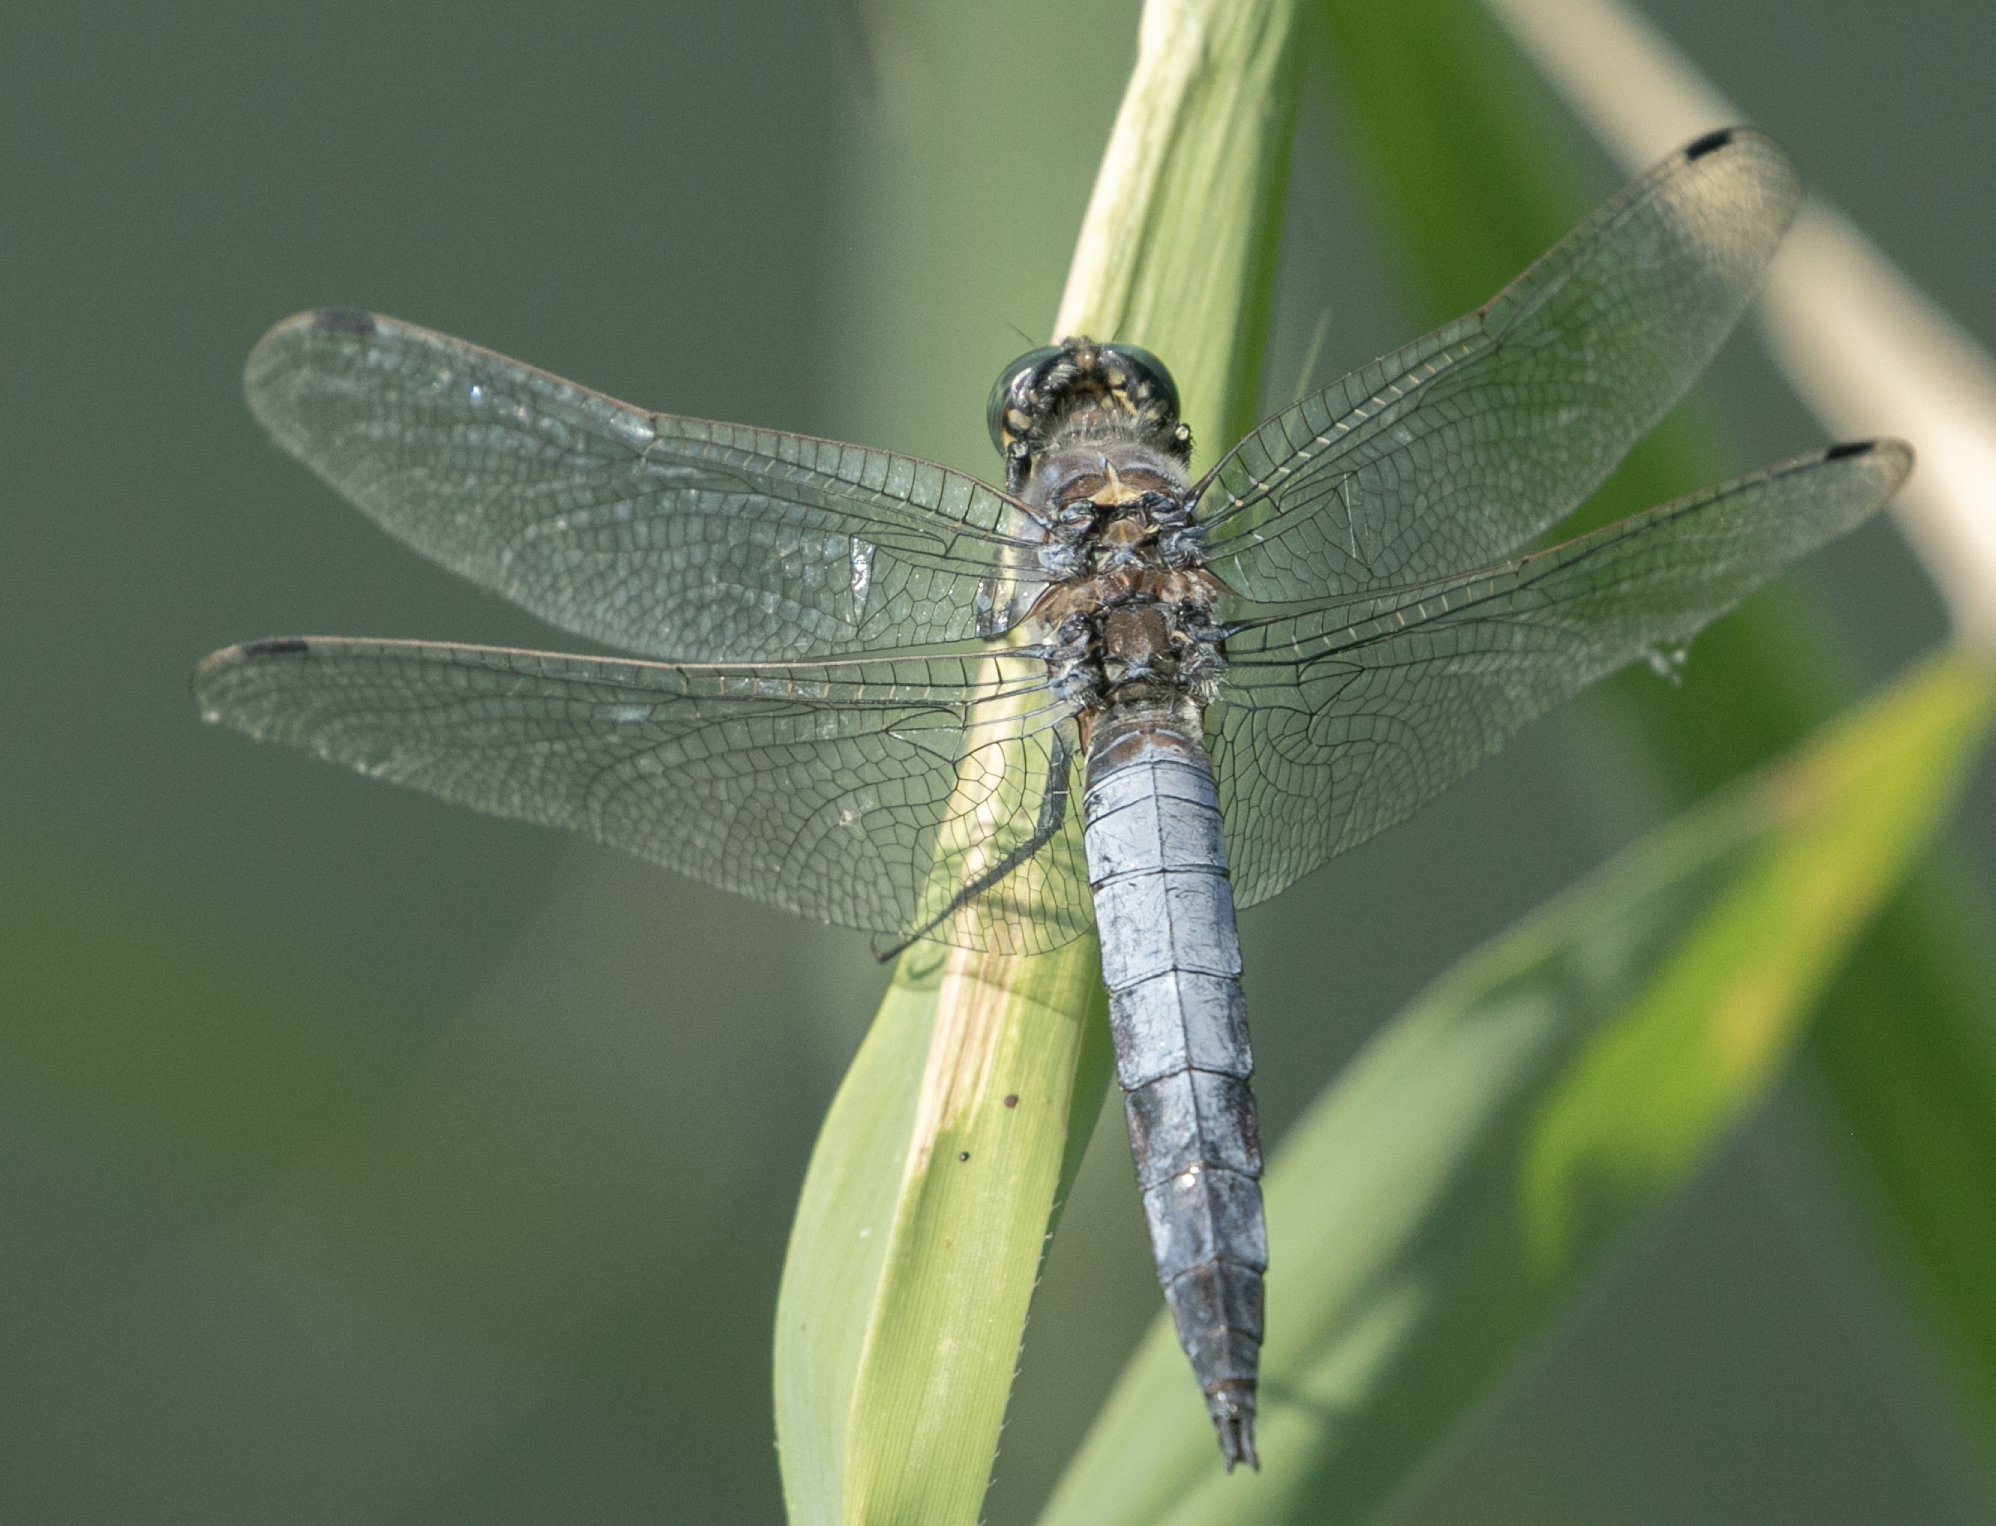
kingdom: Animalia
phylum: Arthropoda
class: Insecta
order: Odonata
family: Libellulidae
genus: Orthetrum
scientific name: Orthetrum cancellatum
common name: Black-tailed skimmer
